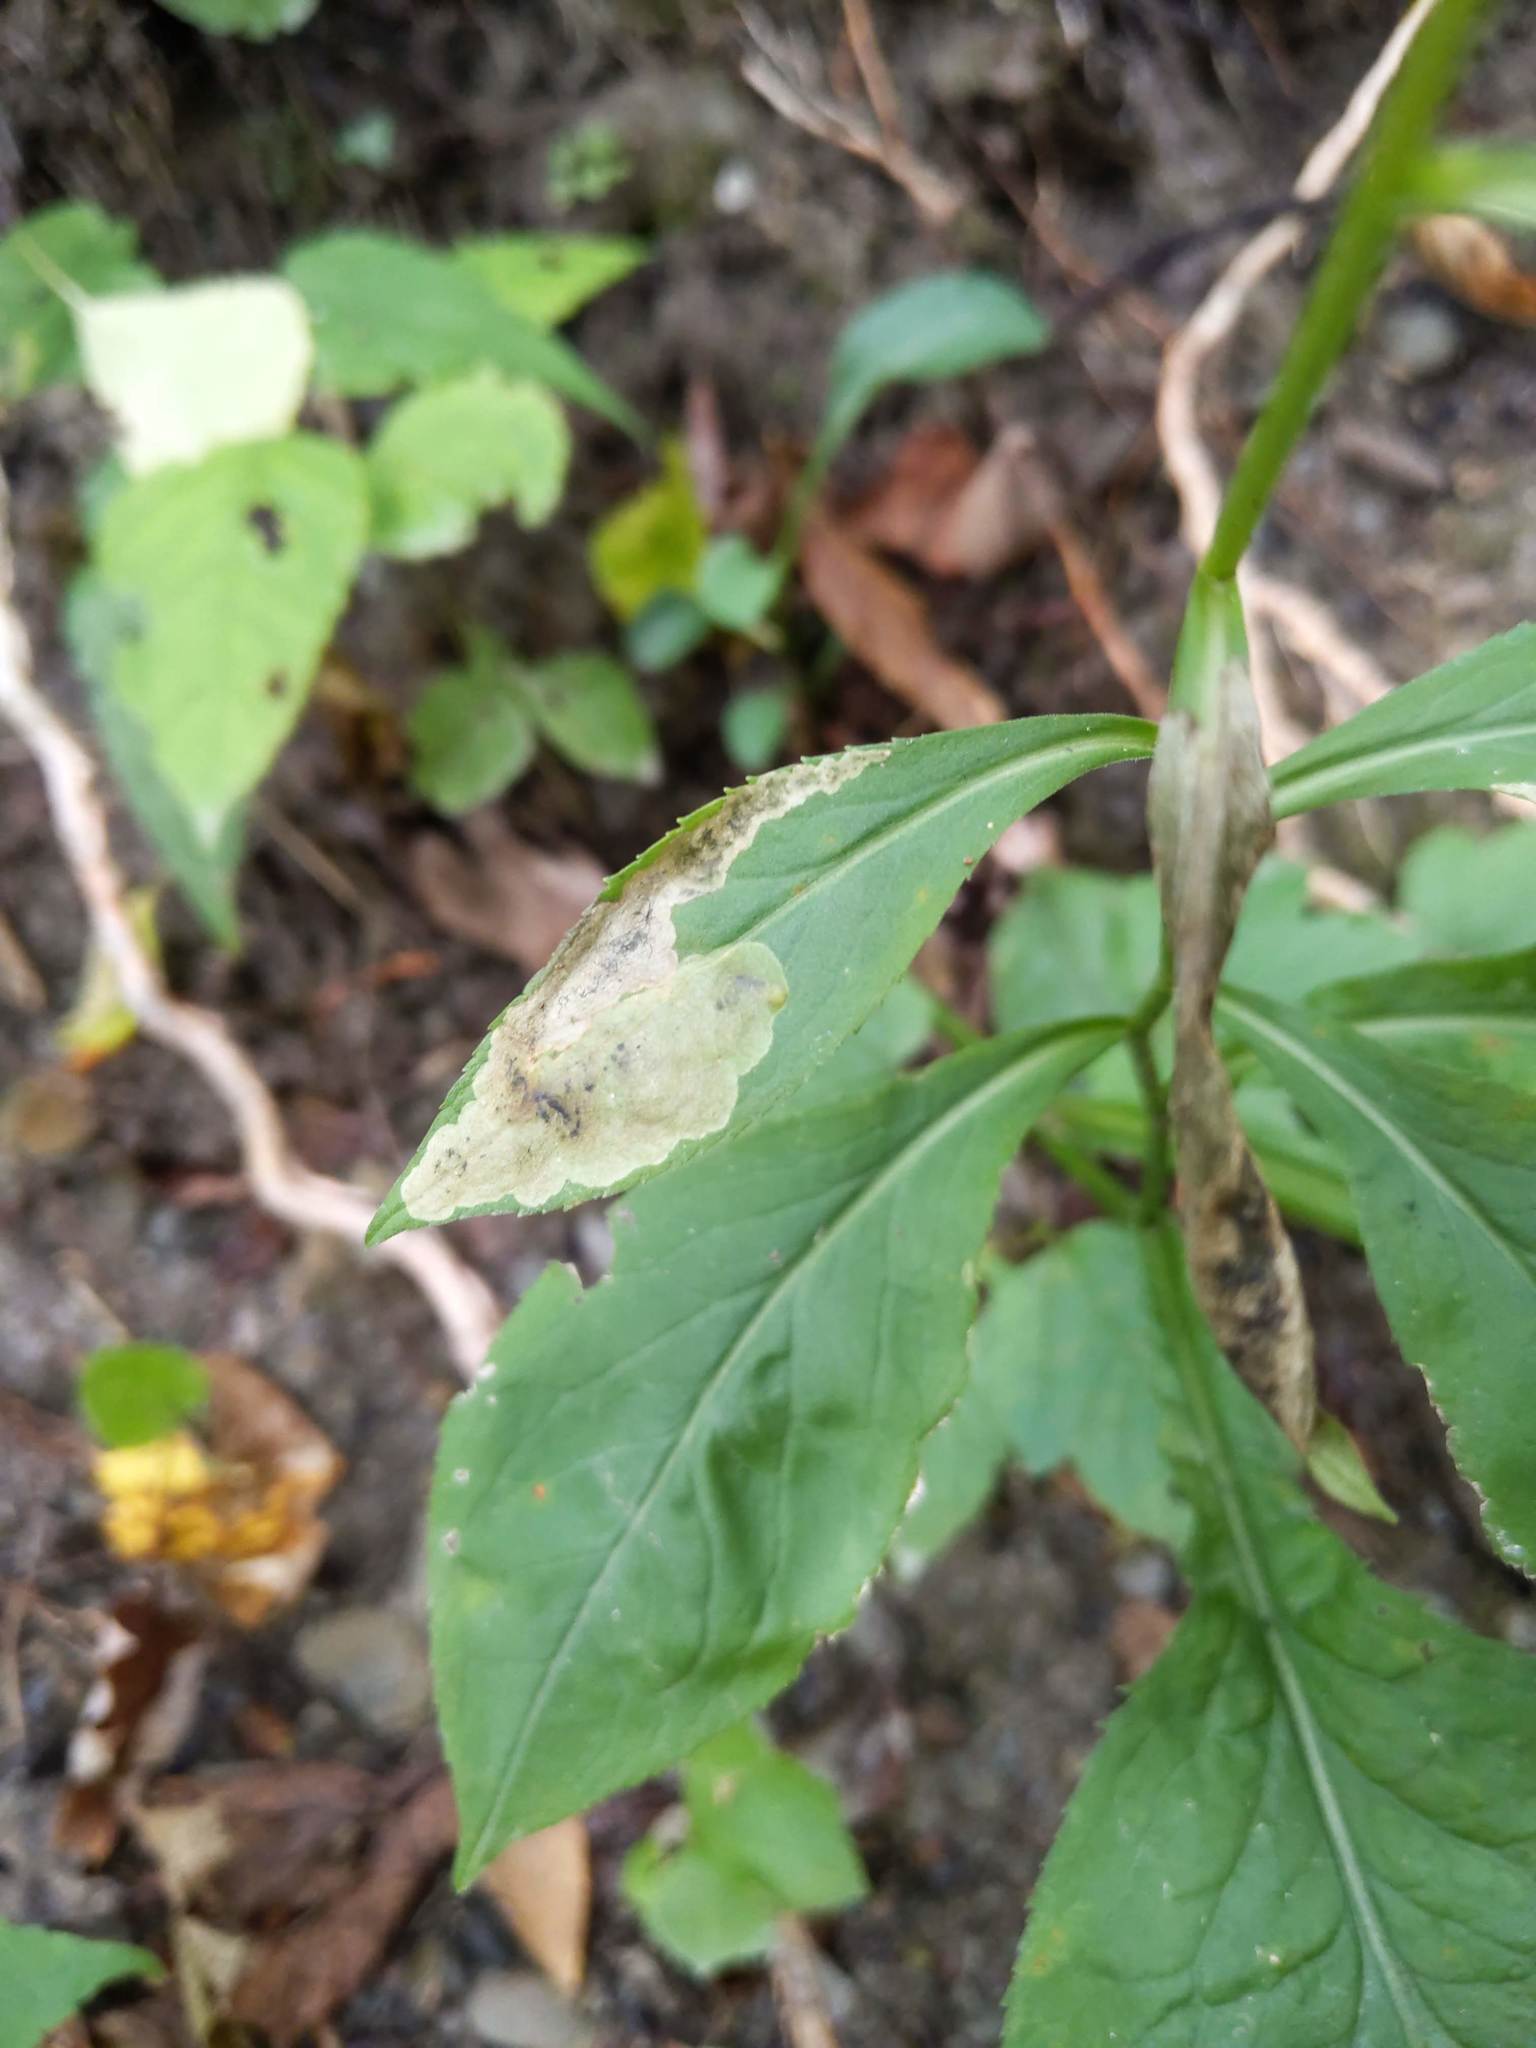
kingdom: Animalia
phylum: Arthropoda
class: Insecta
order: Diptera
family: Agromyzidae
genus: Nemorimyza
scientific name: Nemorimyza posticata
